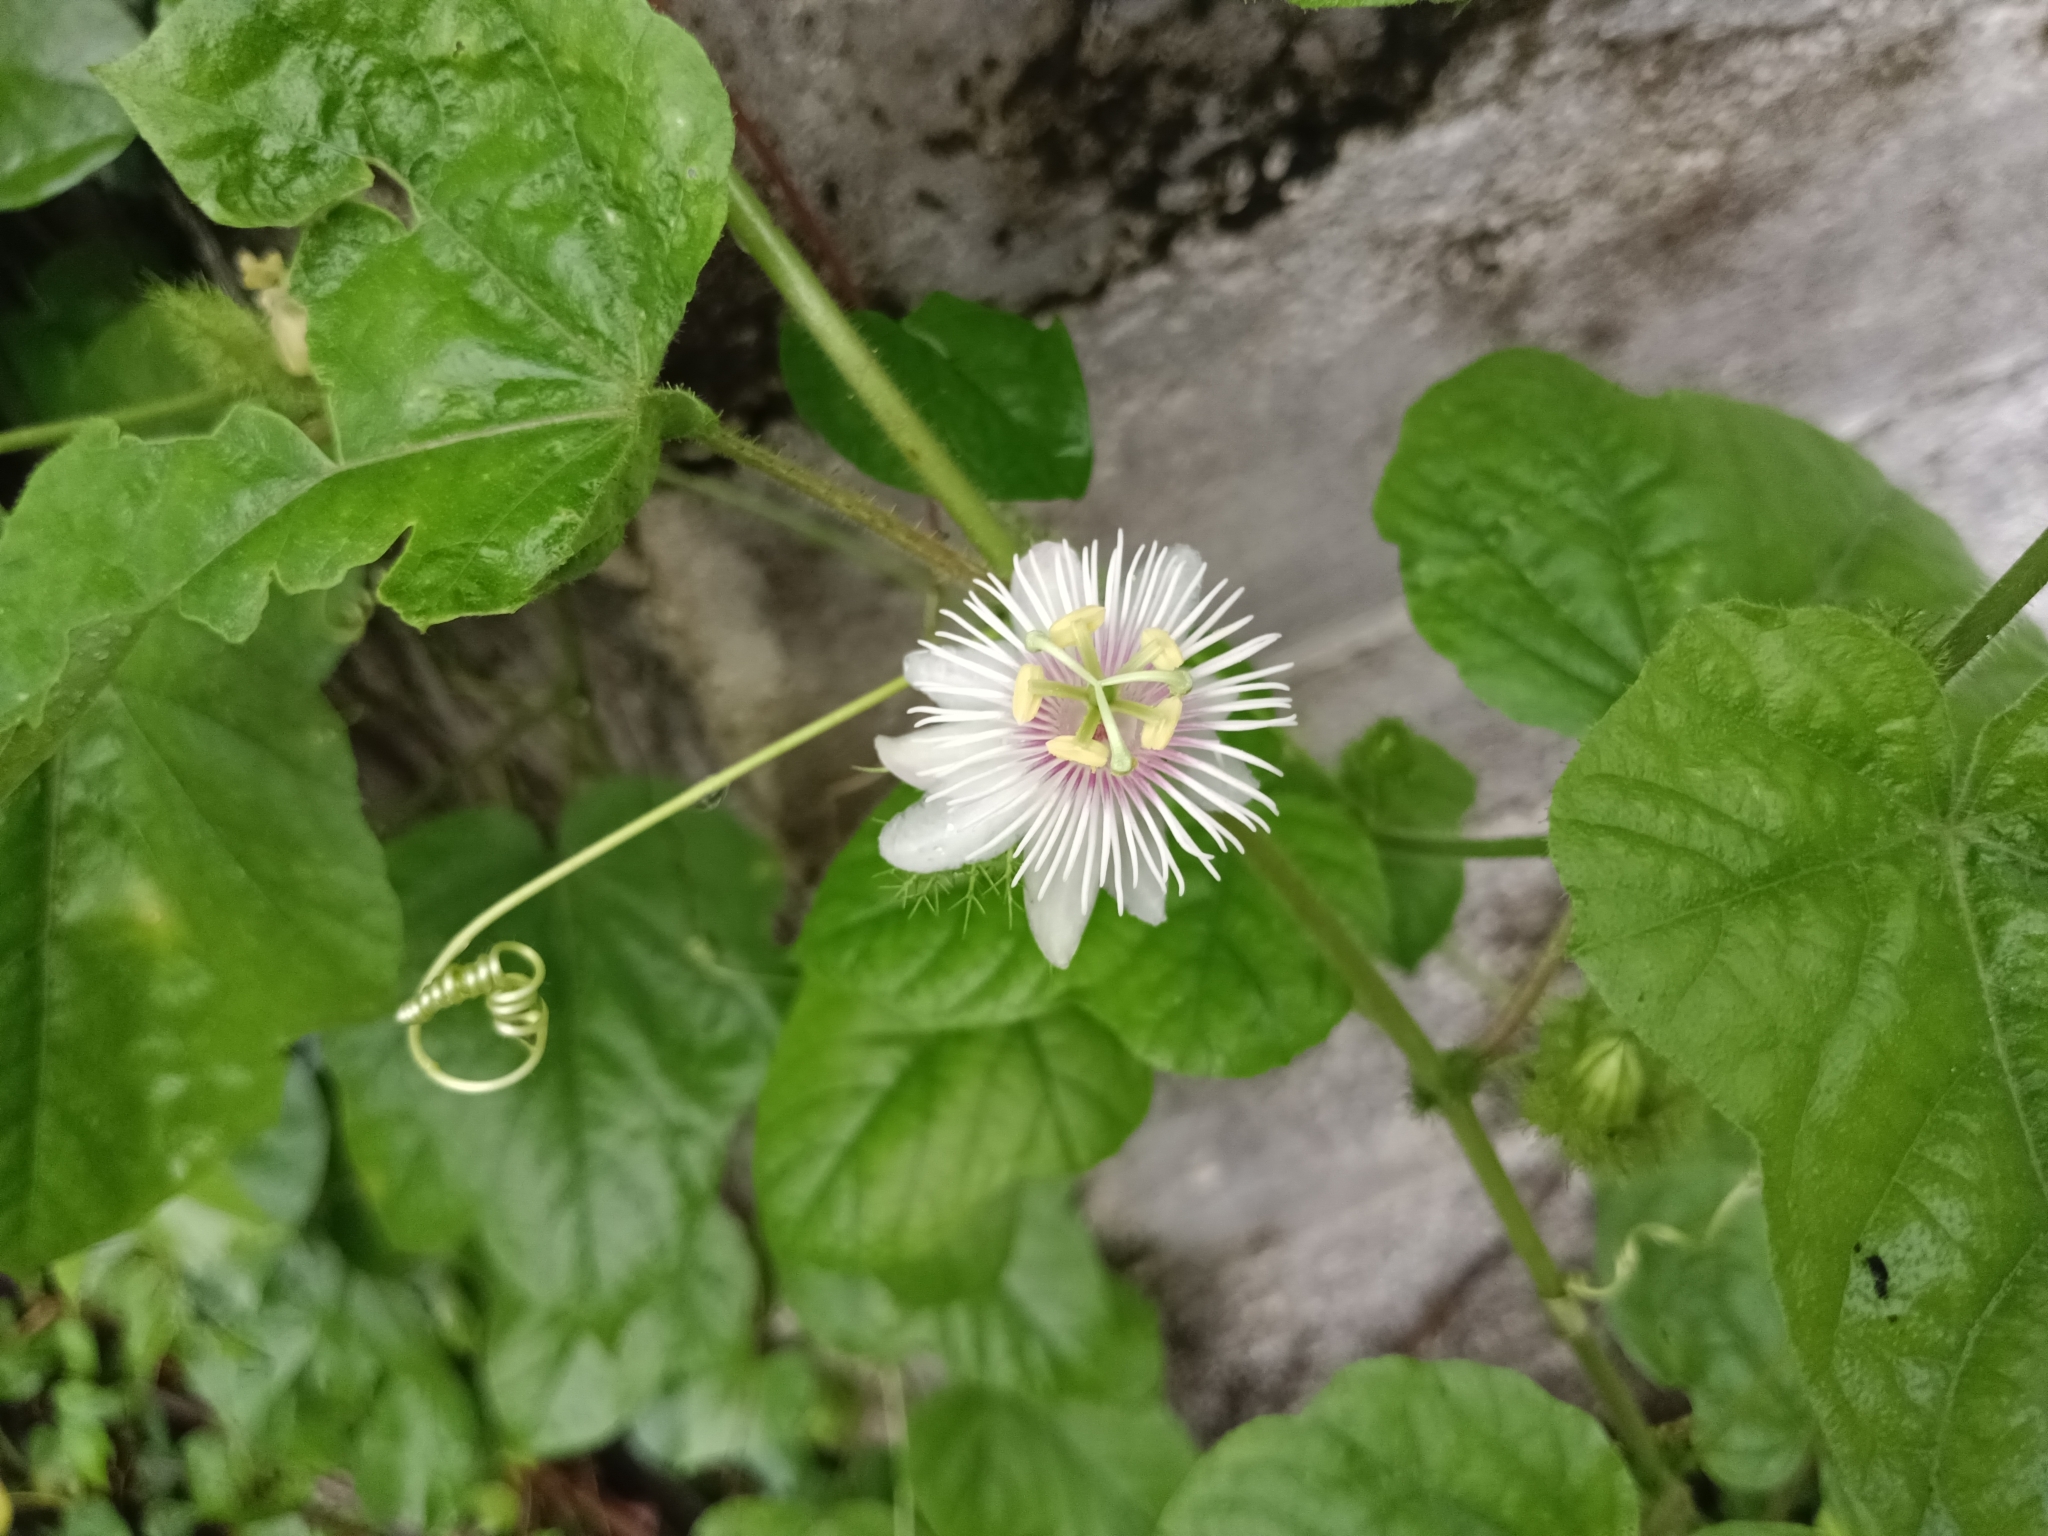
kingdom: Plantae
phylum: Tracheophyta
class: Magnoliopsida
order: Malpighiales
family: Passifloraceae
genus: Passiflora
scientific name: Passiflora vesicaria
